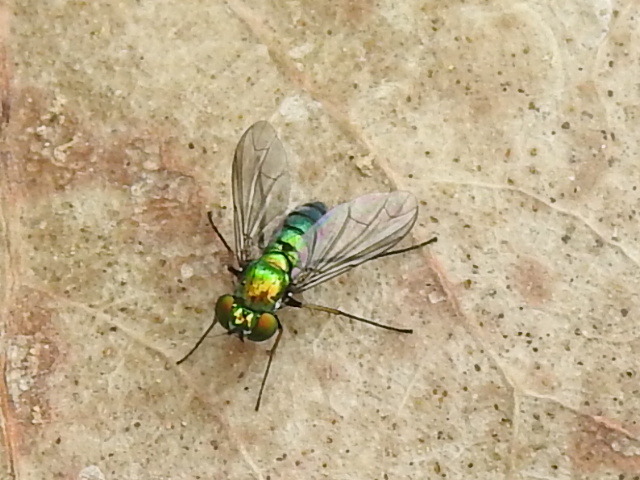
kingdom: Animalia
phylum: Arthropoda
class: Insecta
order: Diptera
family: Dolichopodidae
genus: Condylostylus
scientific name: Condylostylus longicornis
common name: Long-legged fly
